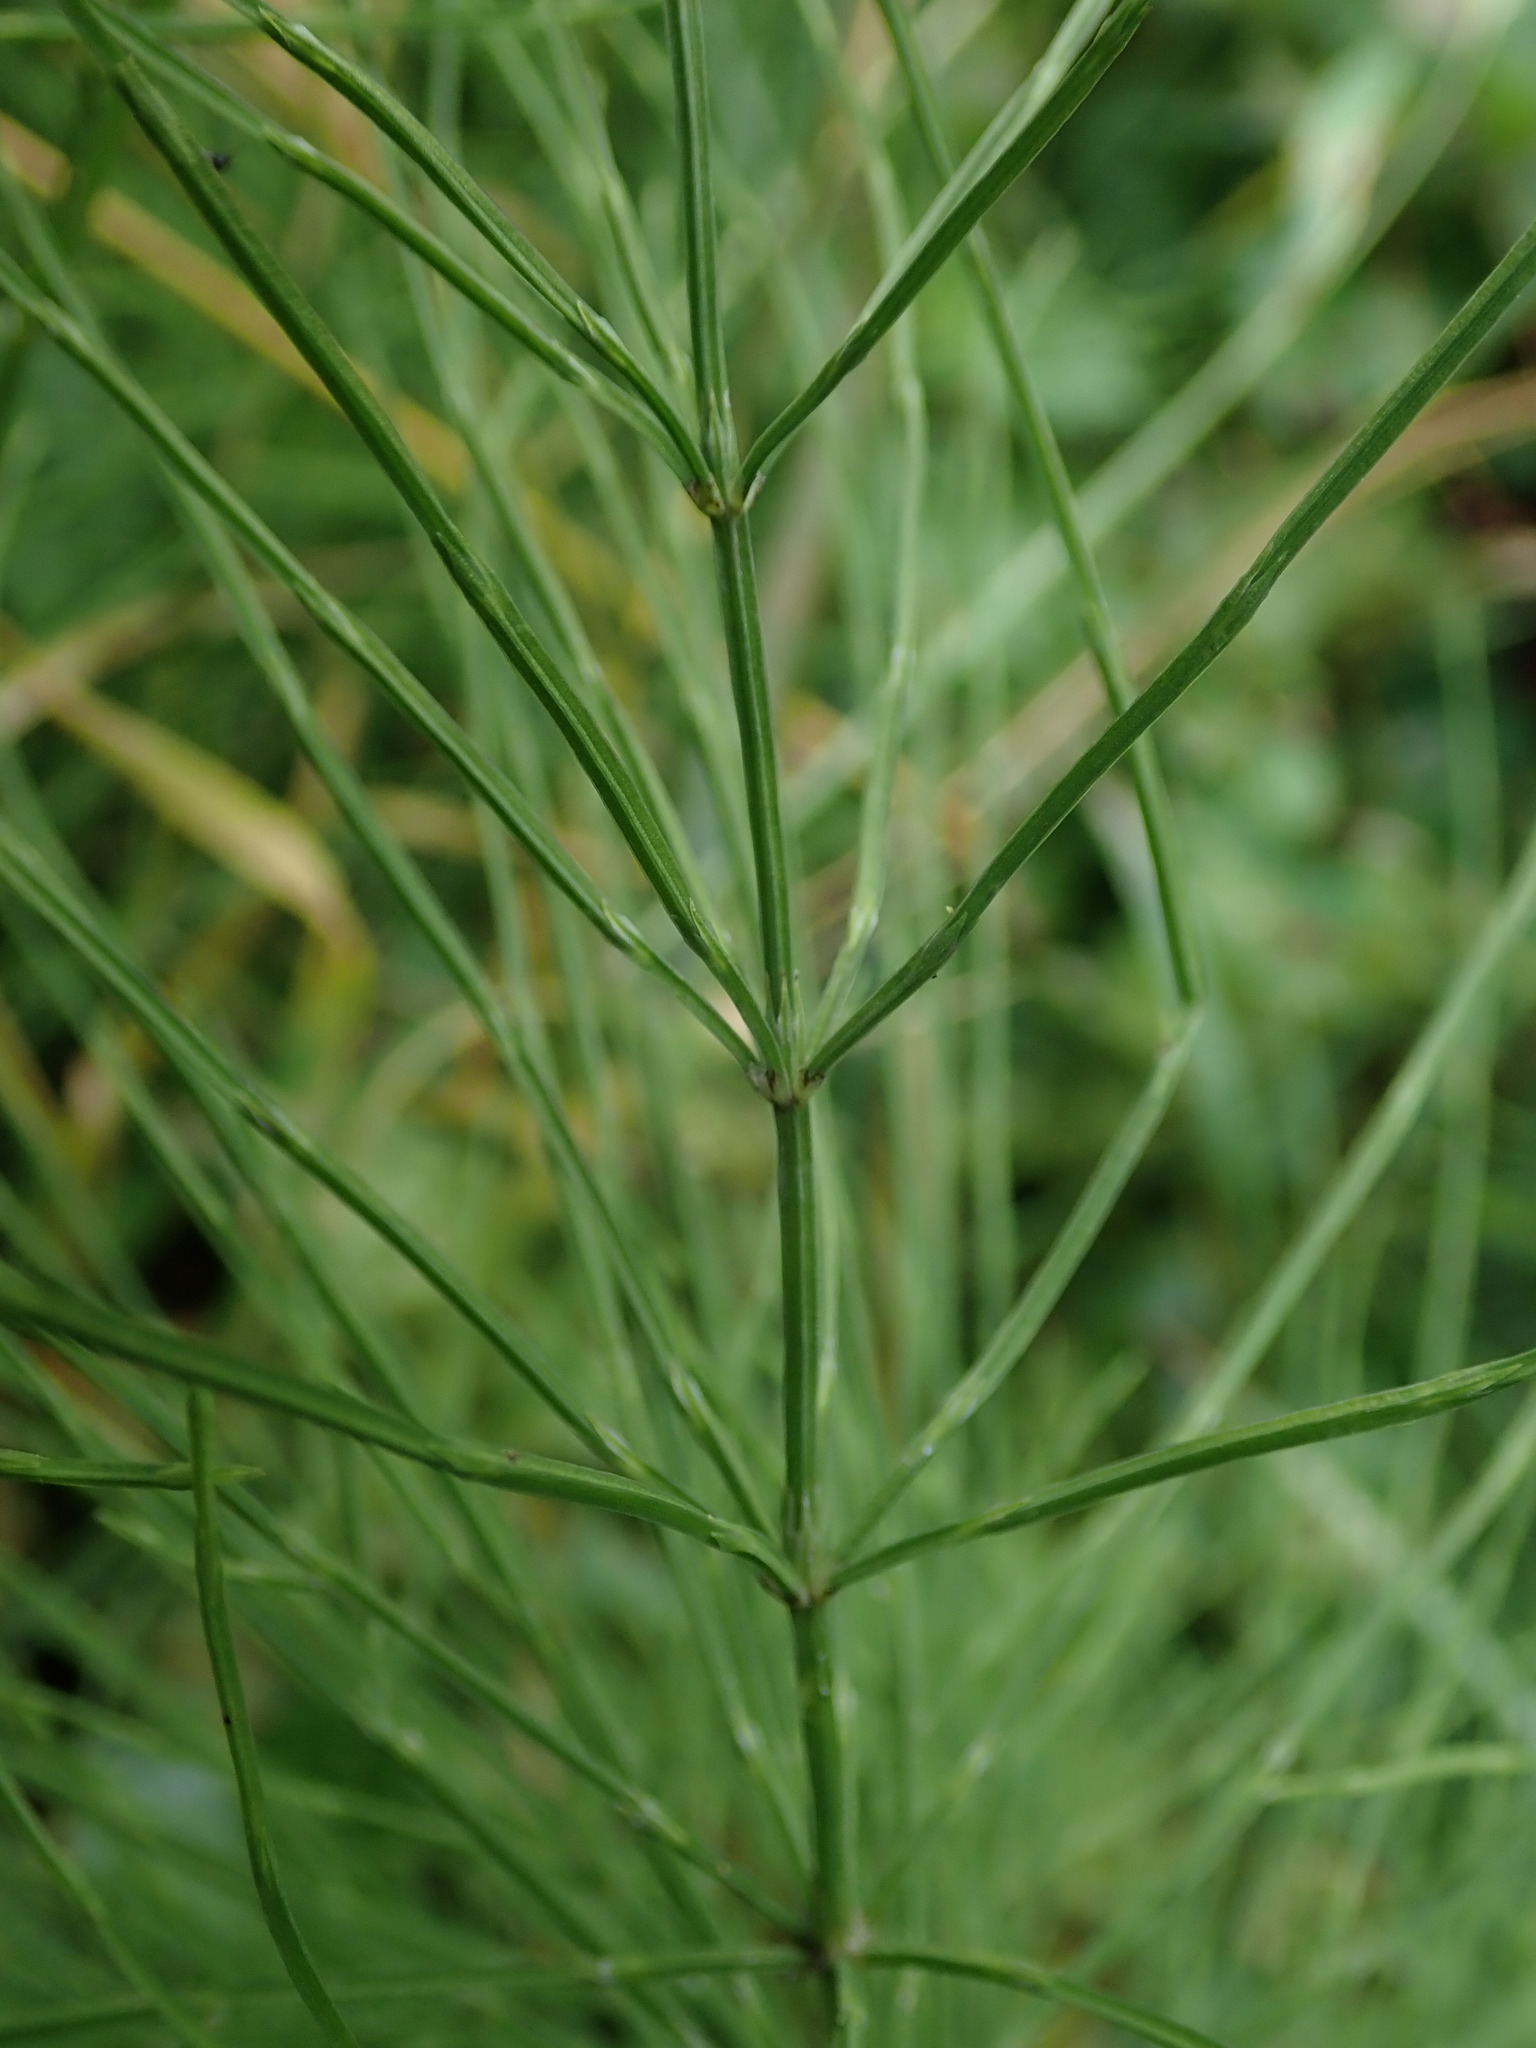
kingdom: Plantae
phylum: Tracheophyta
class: Polypodiopsida
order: Equisetales
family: Equisetaceae
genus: Equisetum
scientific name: Equisetum arvense
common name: Field horsetail
